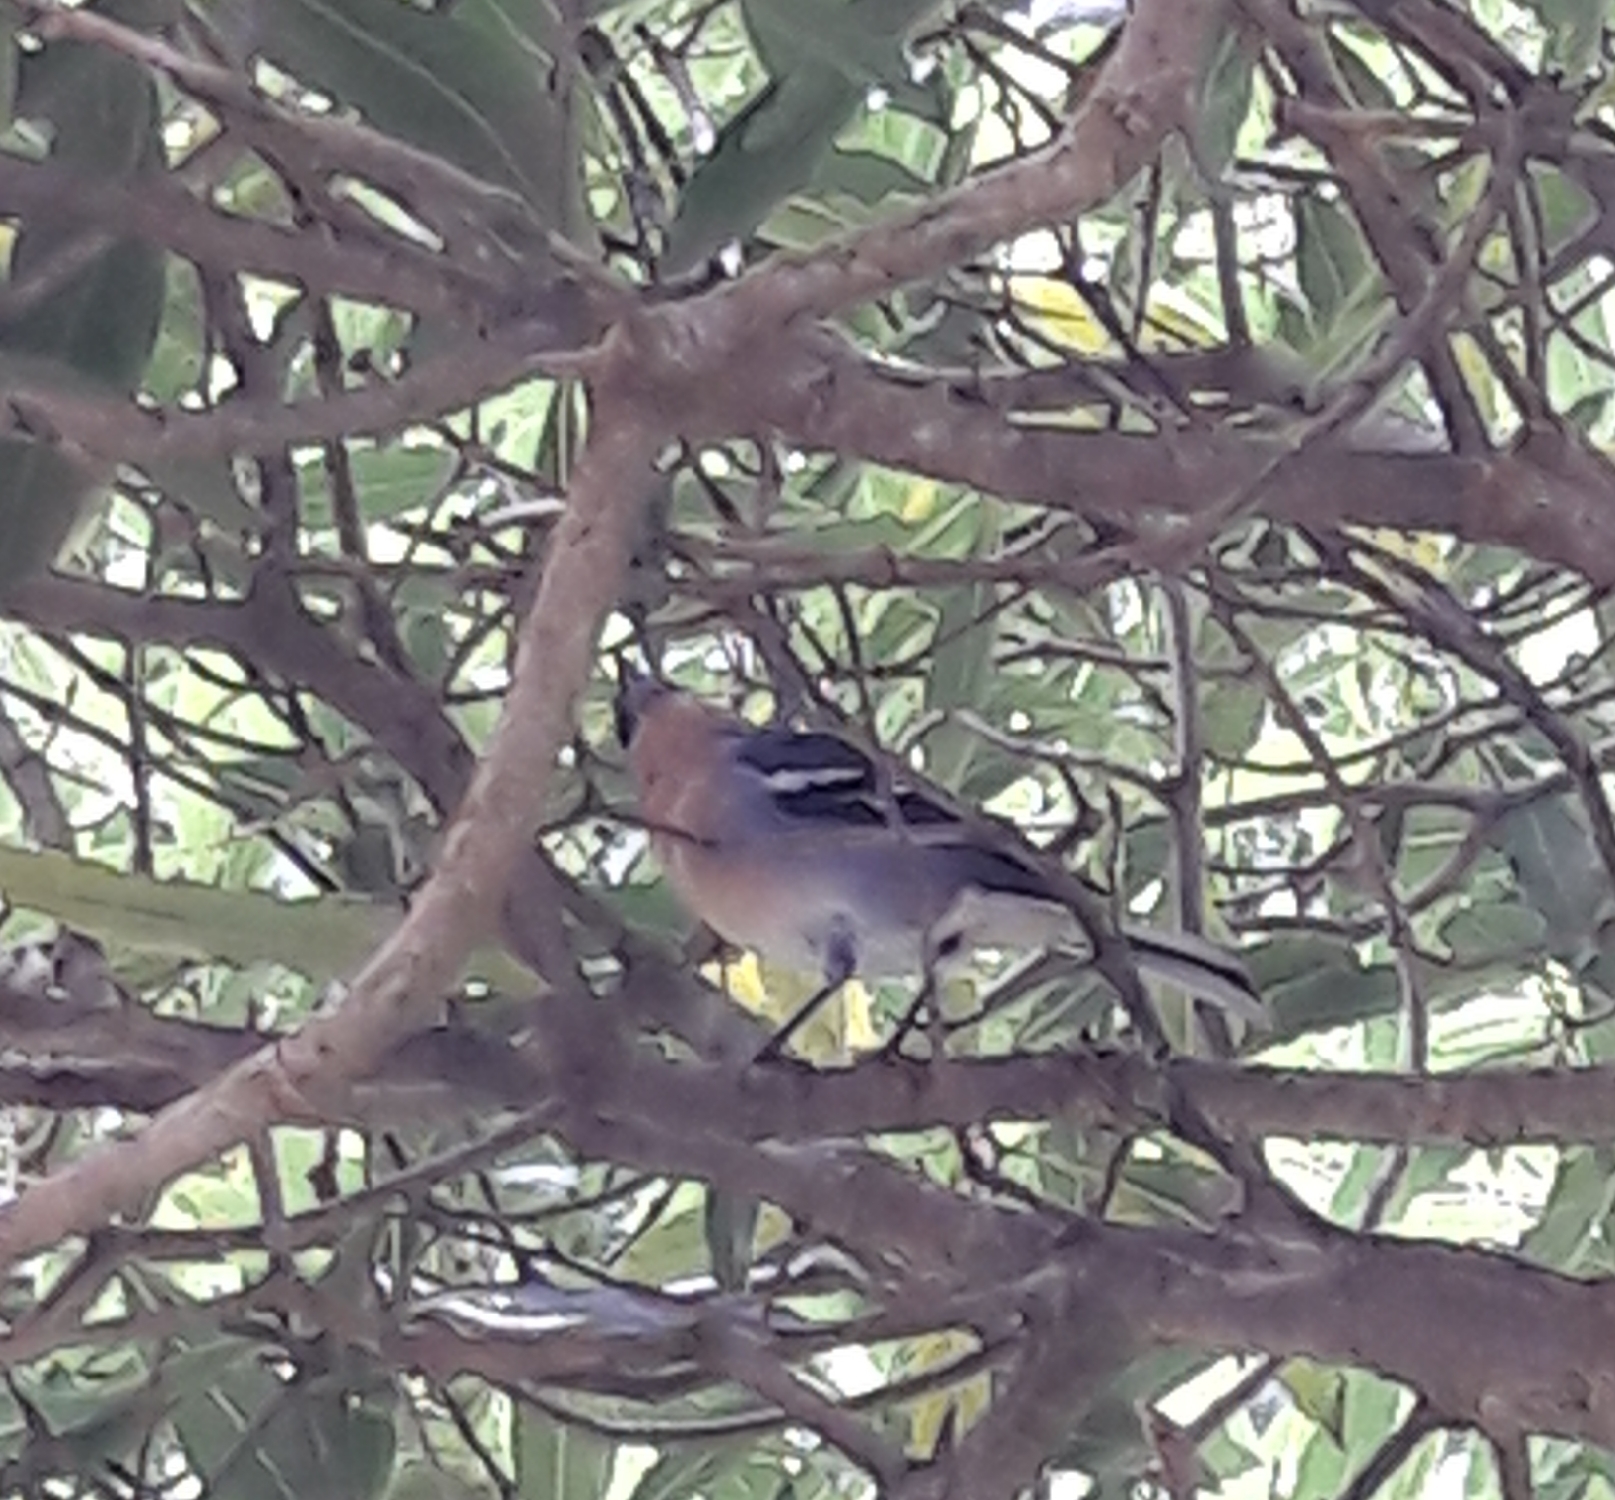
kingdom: Animalia
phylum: Chordata
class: Aves
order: Passeriformes
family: Fringillidae
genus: Fringilla
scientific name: Fringilla moreletti
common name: Azores chaffinch
